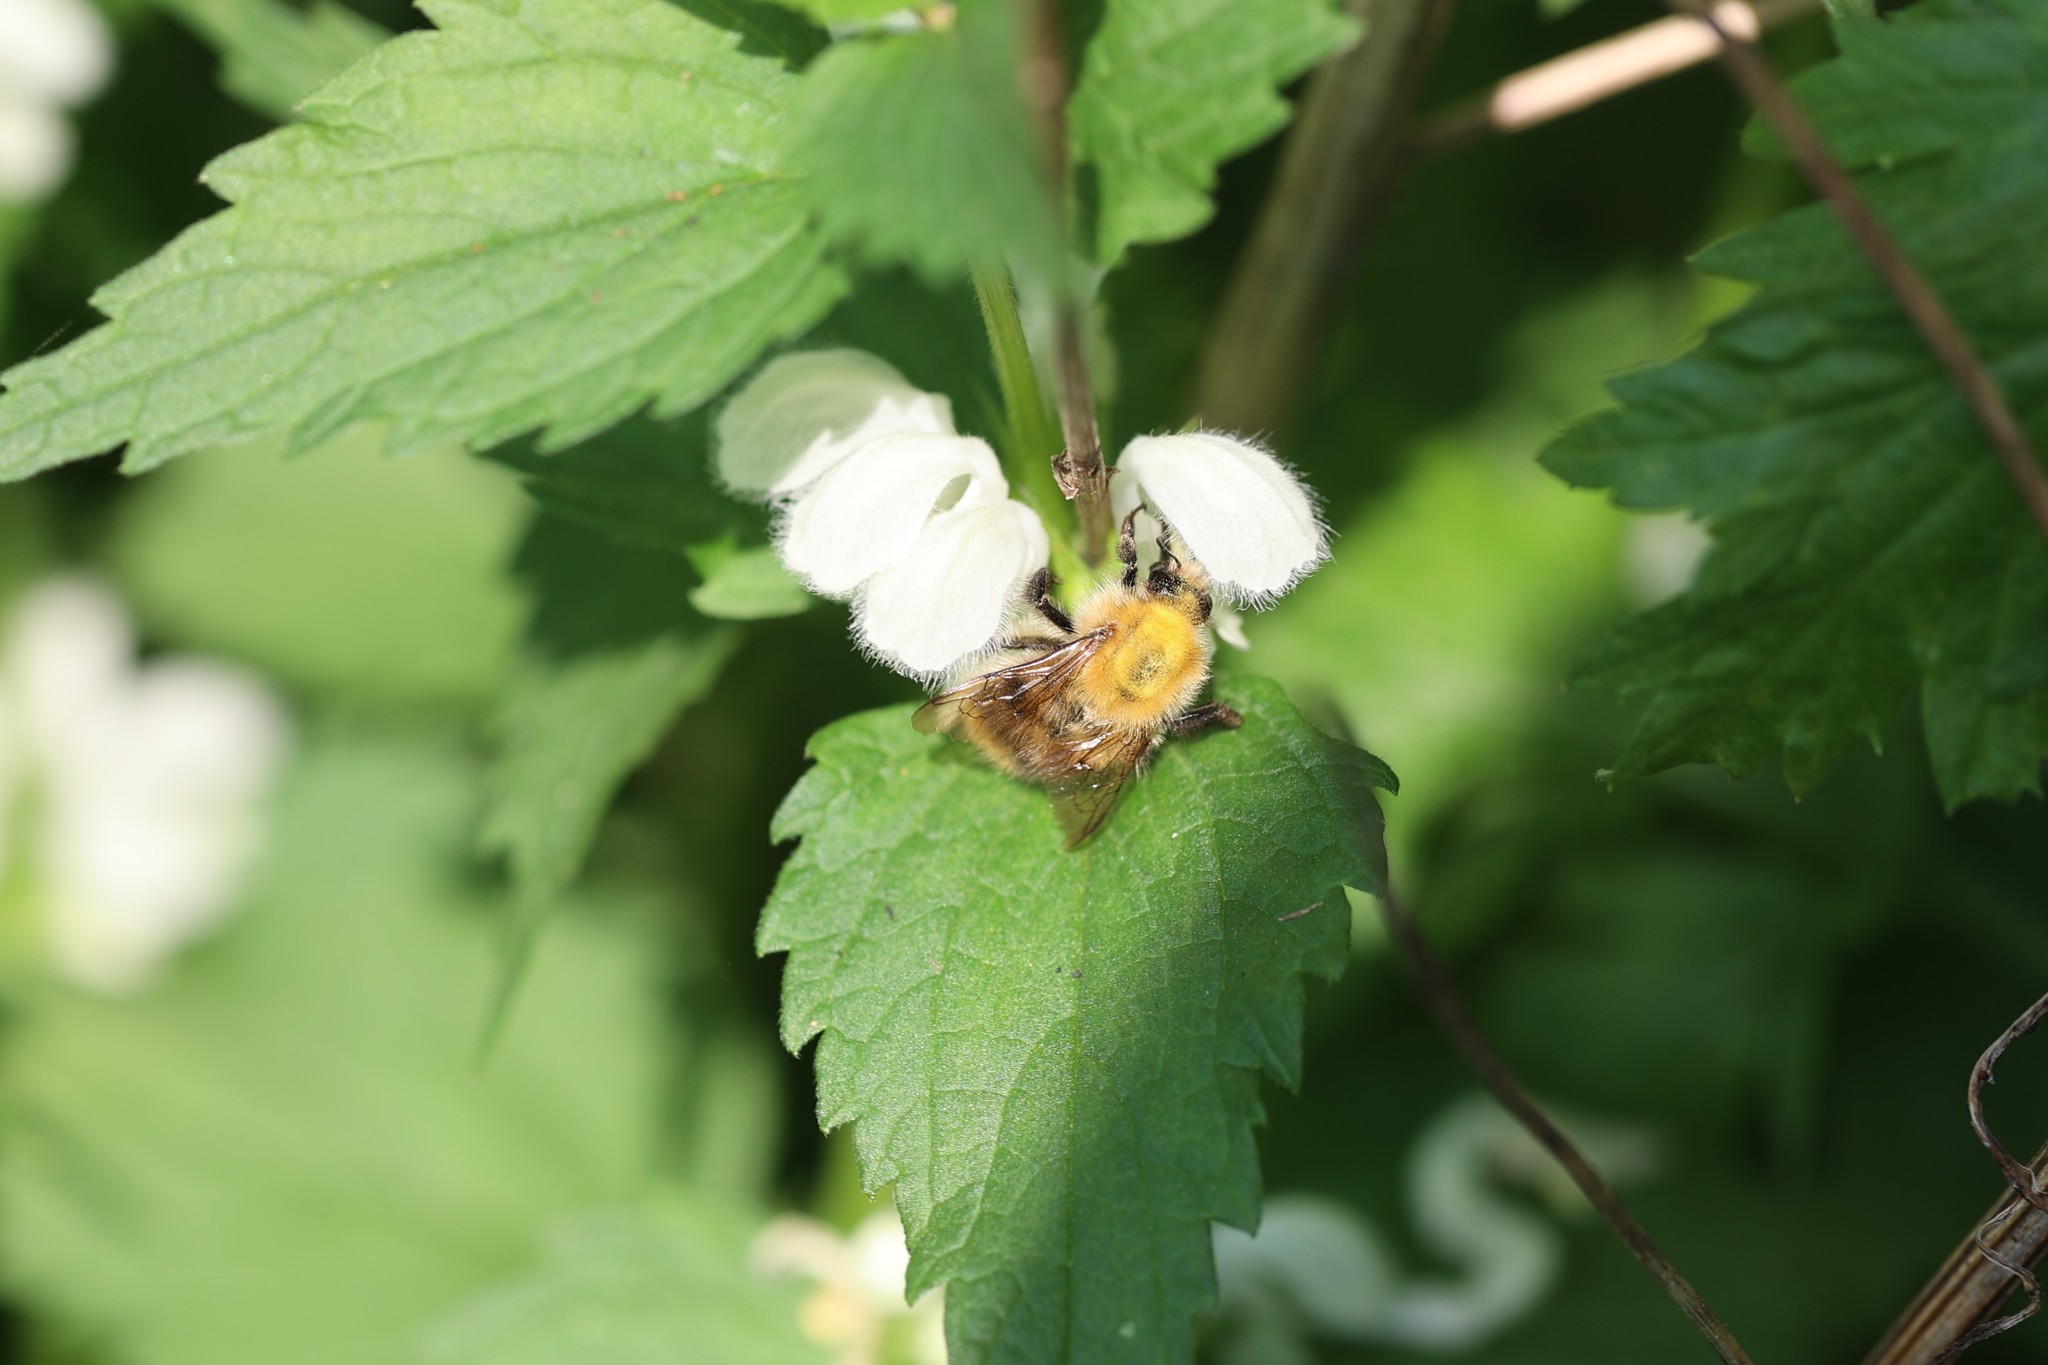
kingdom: Animalia
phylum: Arthropoda
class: Insecta
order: Hymenoptera
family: Apidae
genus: Bombus
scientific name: Bombus pascuorum
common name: Common carder bee
